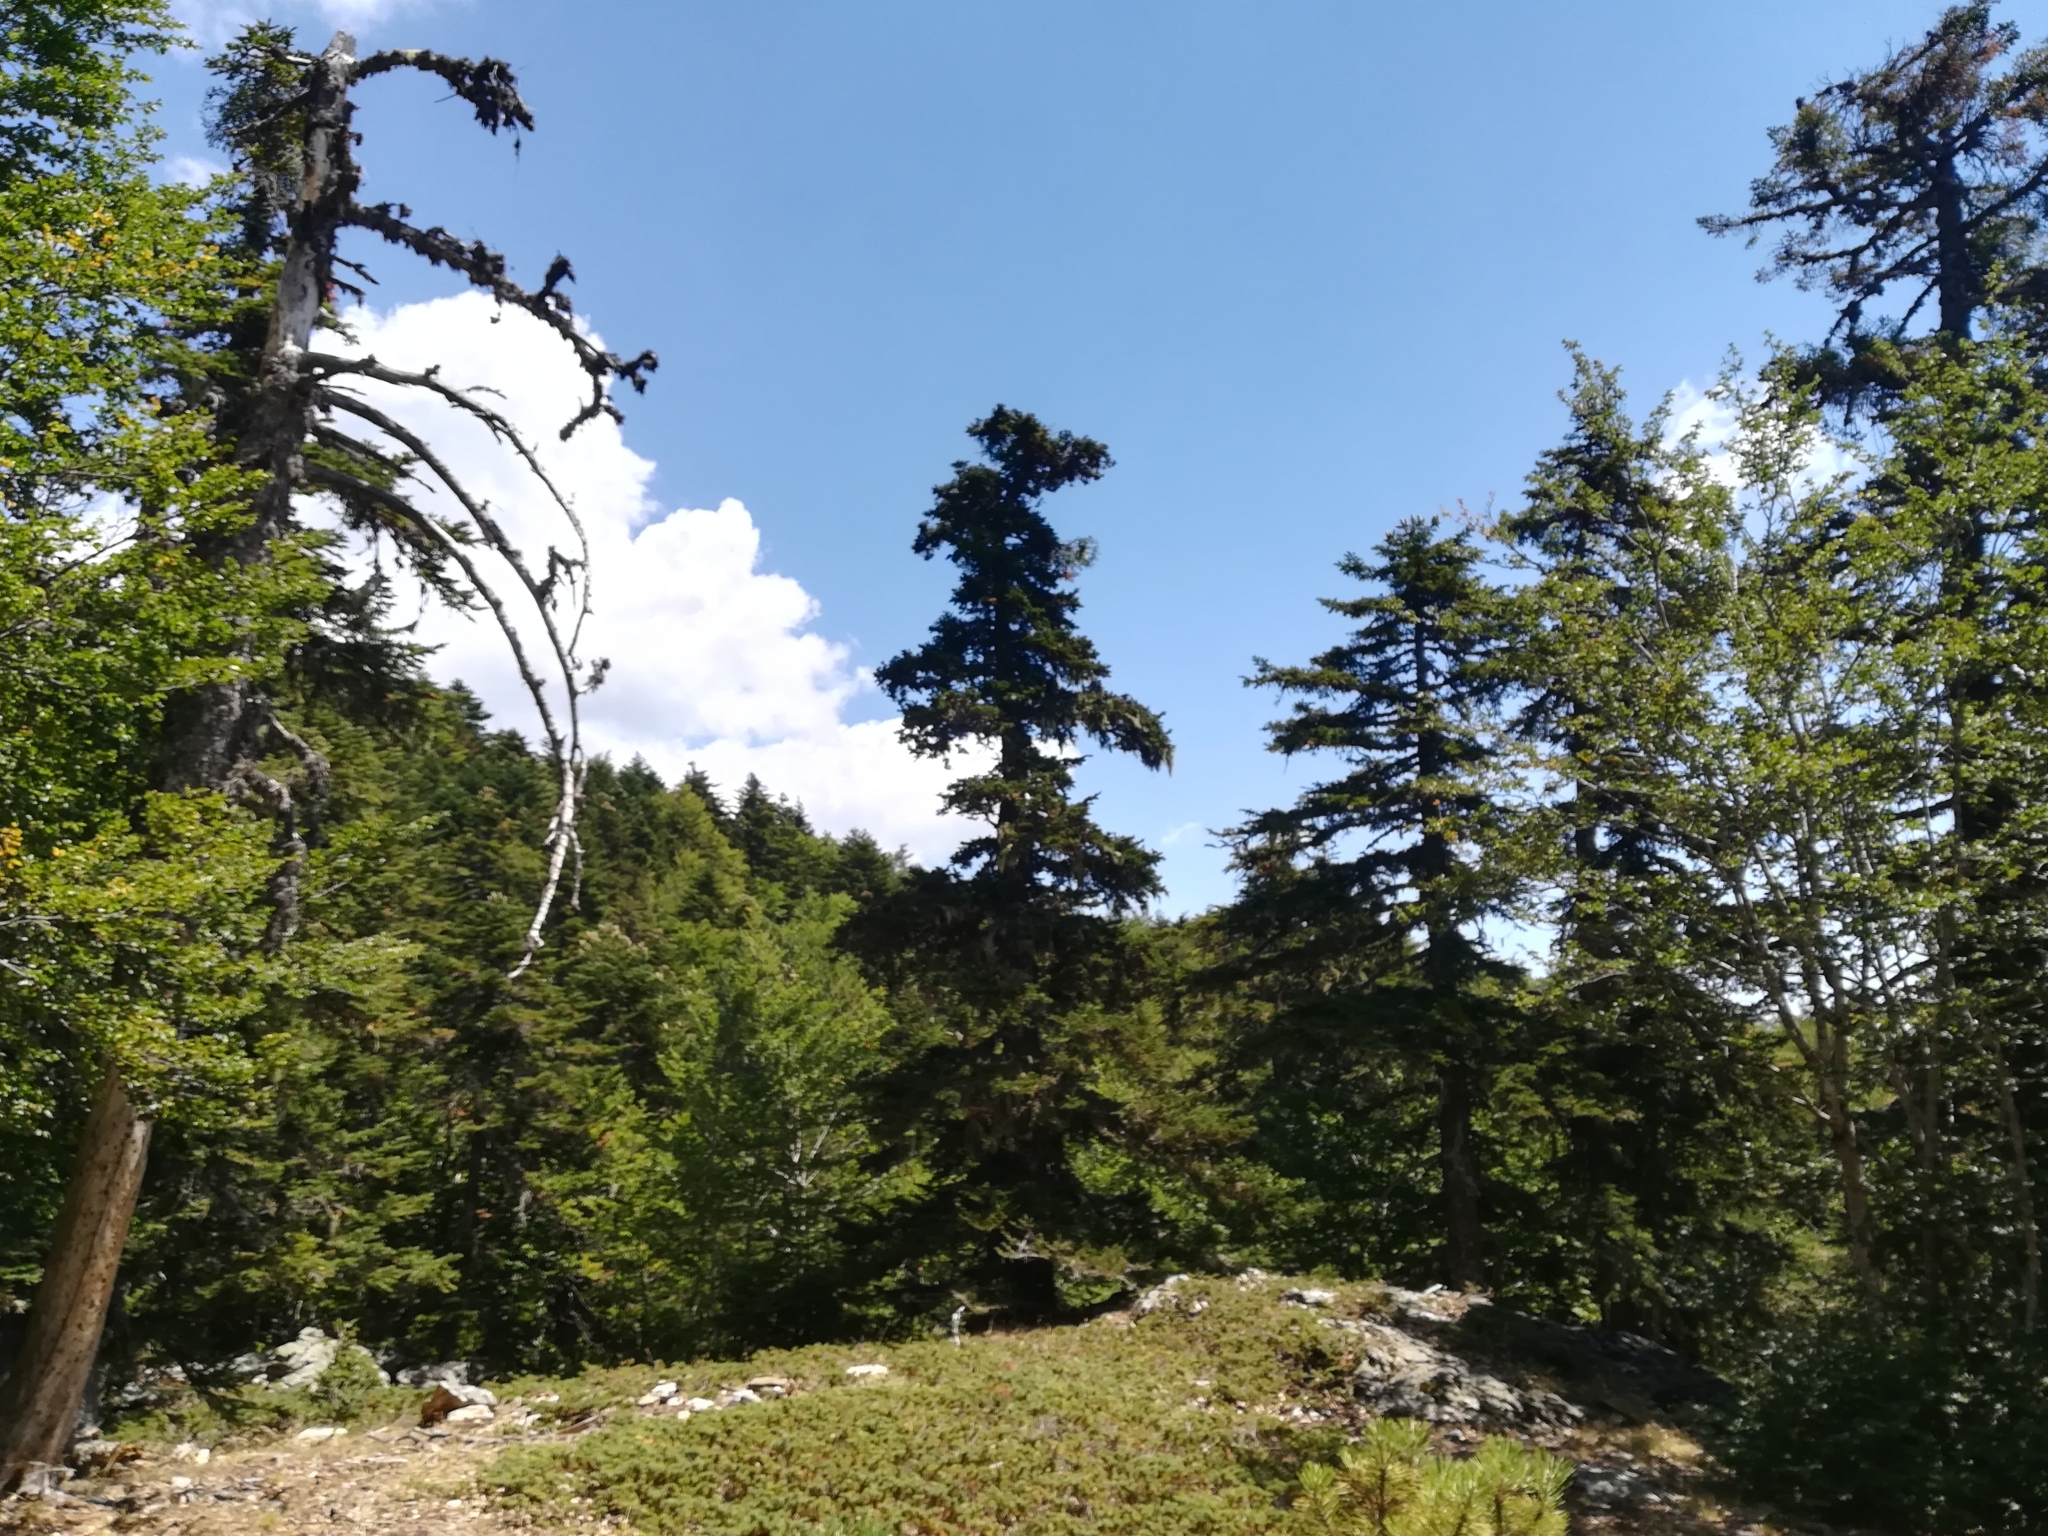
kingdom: Plantae
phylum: Tracheophyta
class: Pinopsida
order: Pinales
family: Pinaceae
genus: Abies
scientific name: Abies alba
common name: Silver fir
